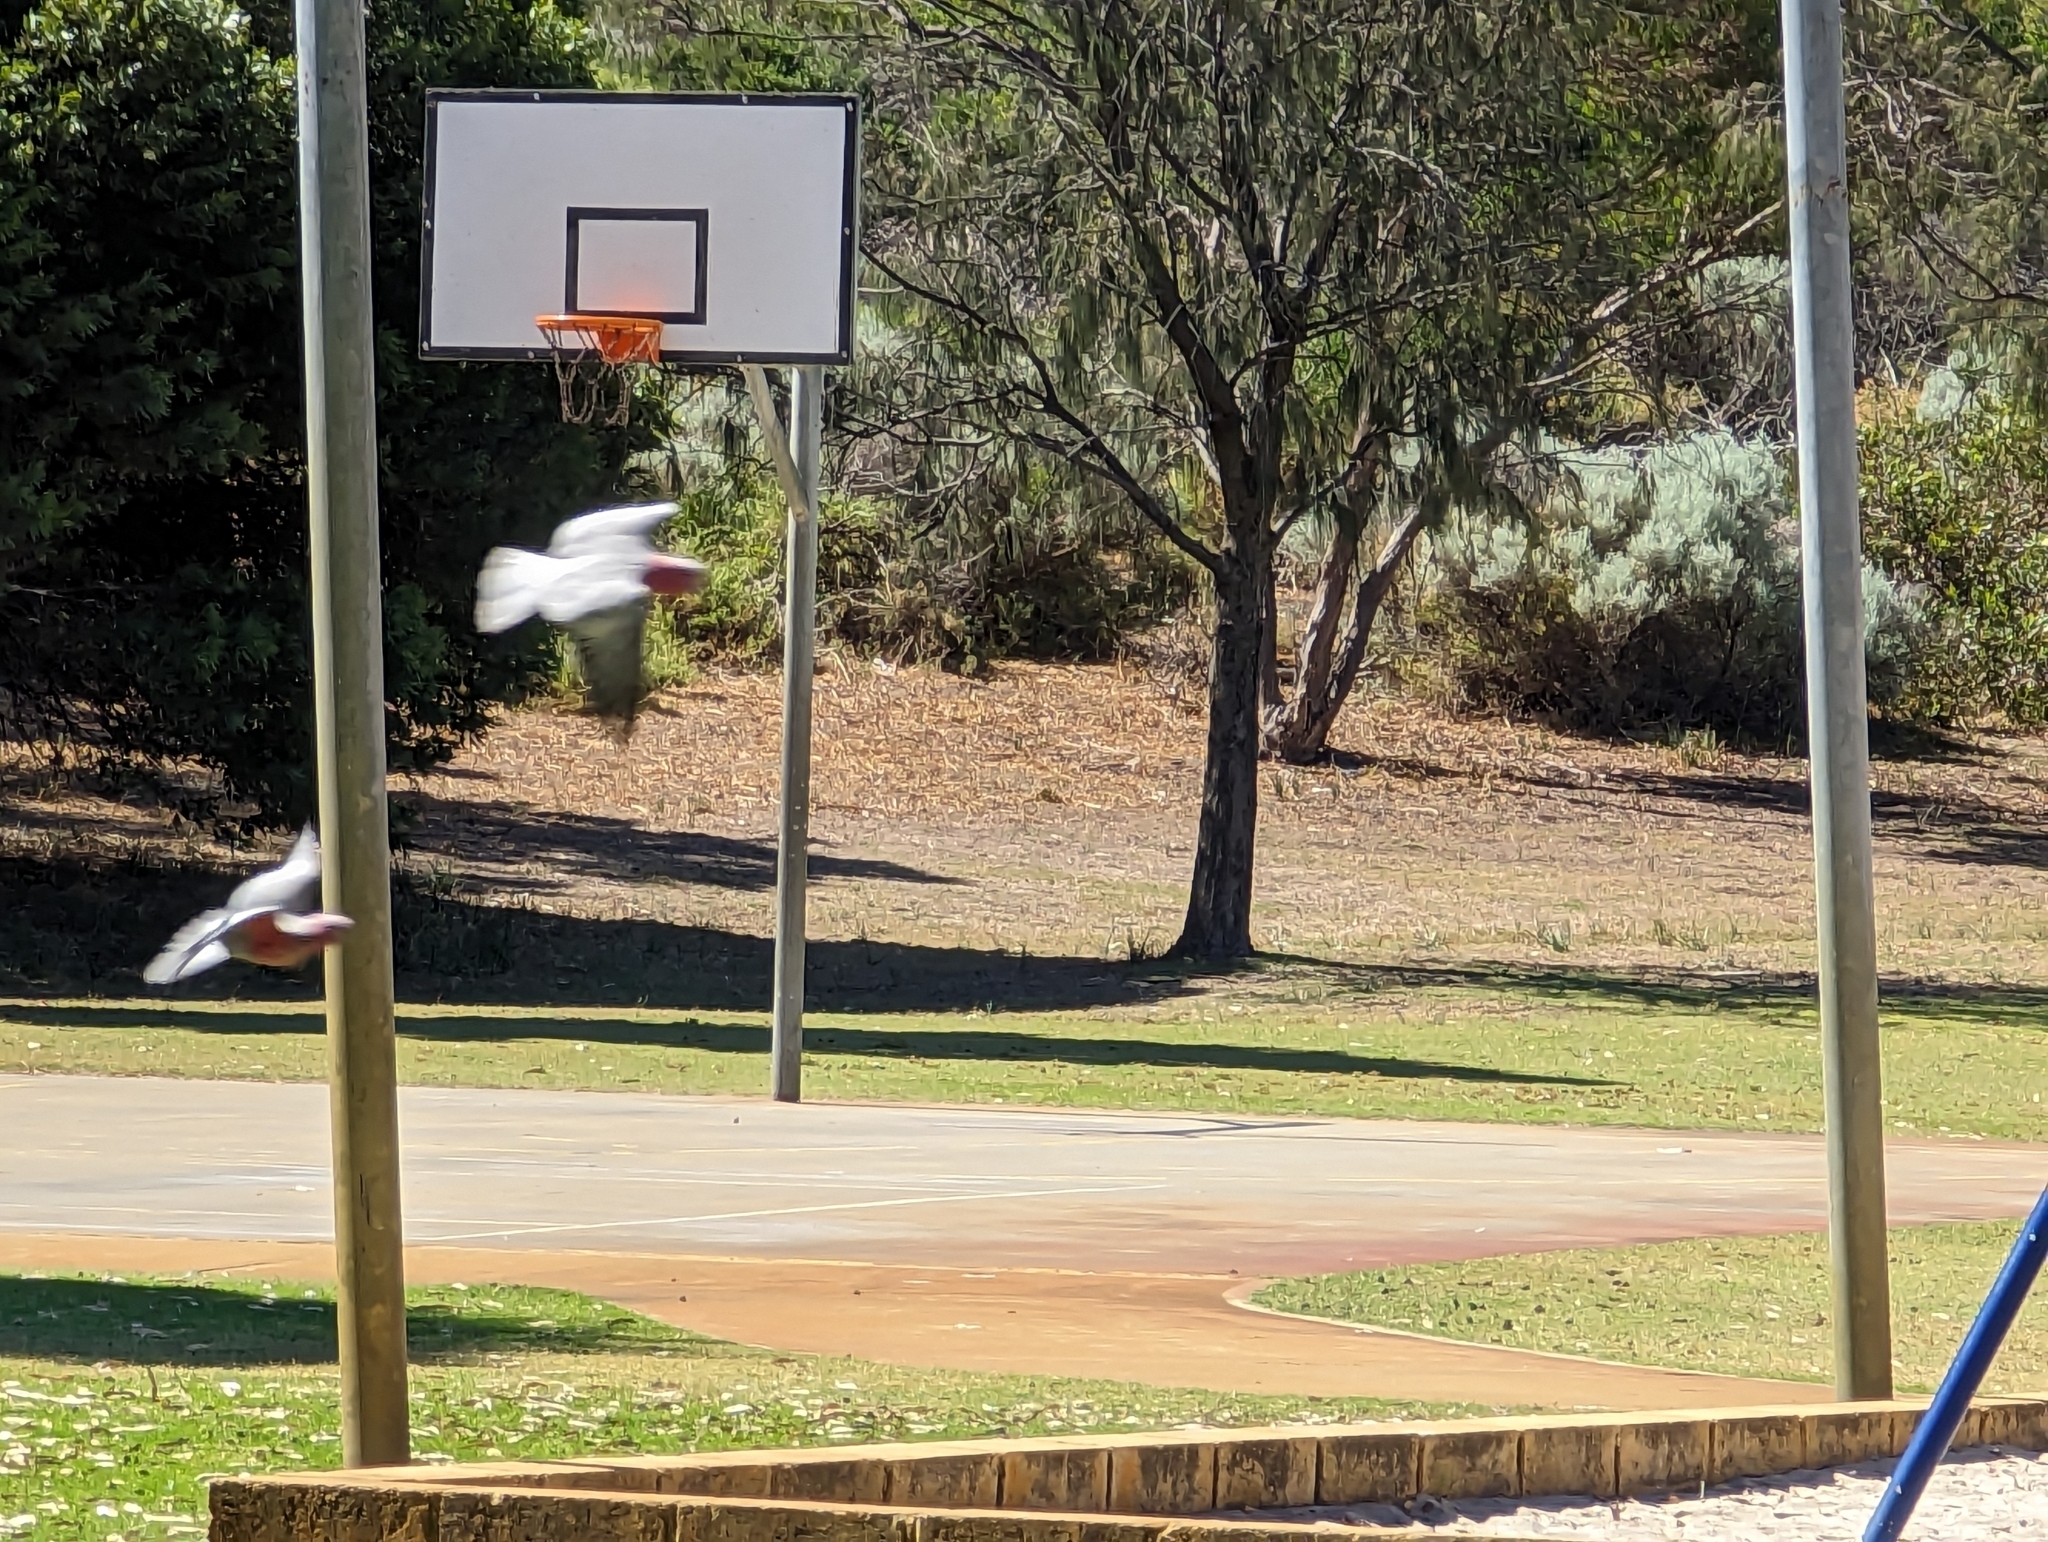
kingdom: Animalia
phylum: Chordata
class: Aves
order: Psittaciformes
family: Psittacidae
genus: Eolophus
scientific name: Eolophus roseicapilla
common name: Galah
